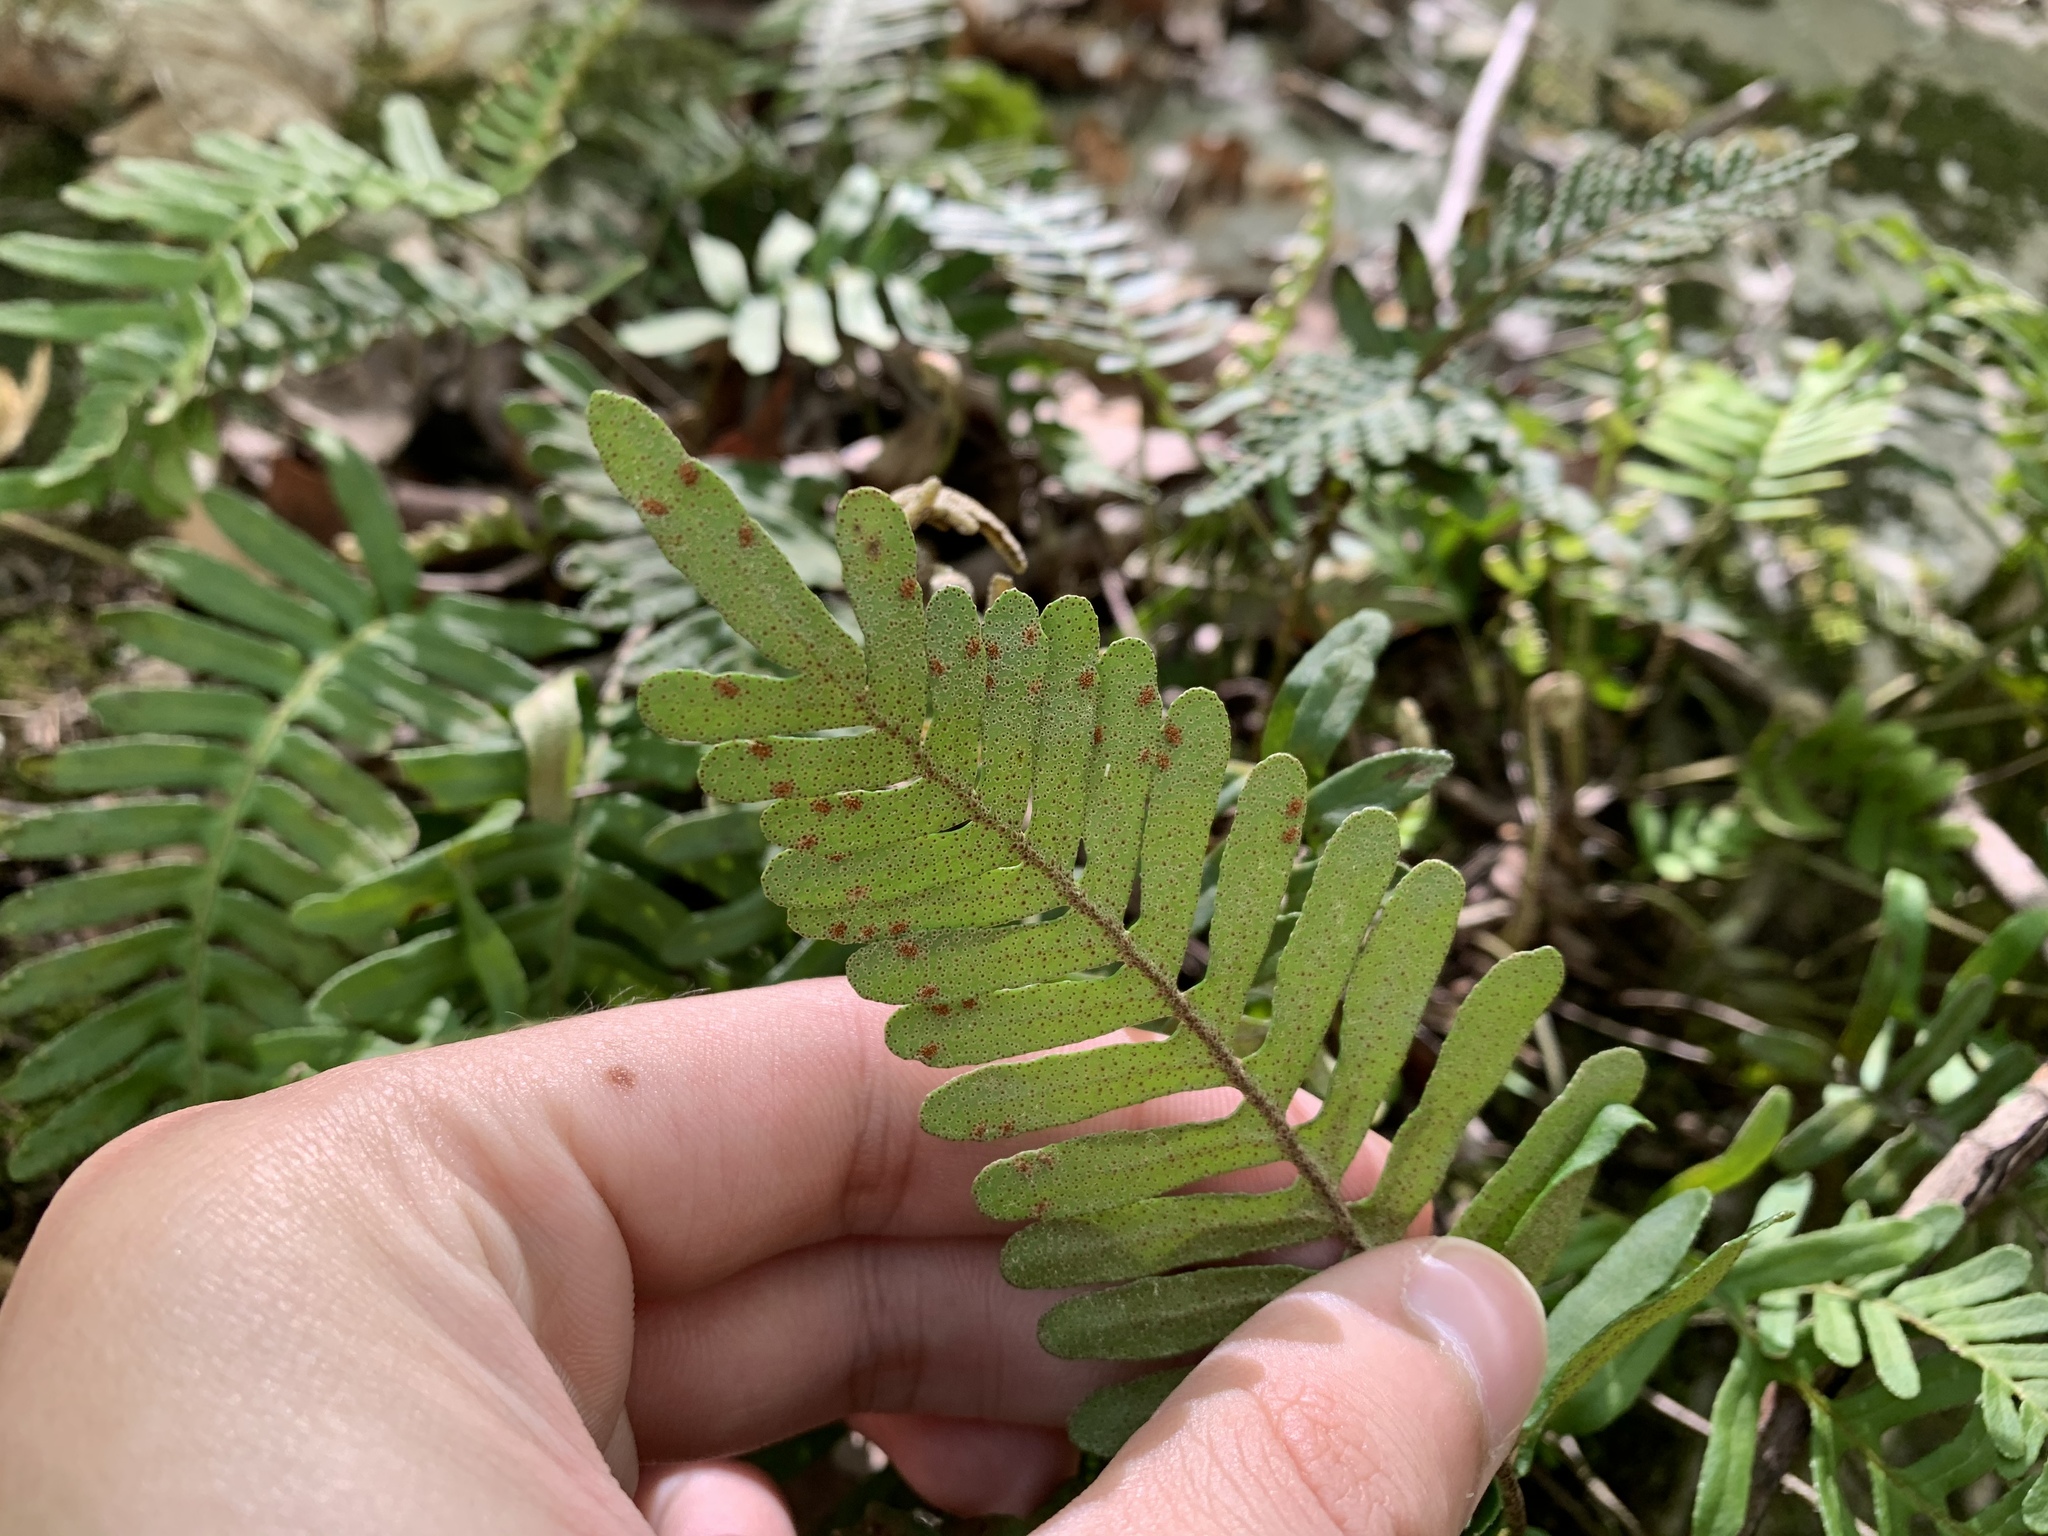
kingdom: Plantae
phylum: Tracheophyta
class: Polypodiopsida
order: Polypodiales
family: Polypodiaceae
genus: Pleopeltis
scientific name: Pleopeltis michauxiana
